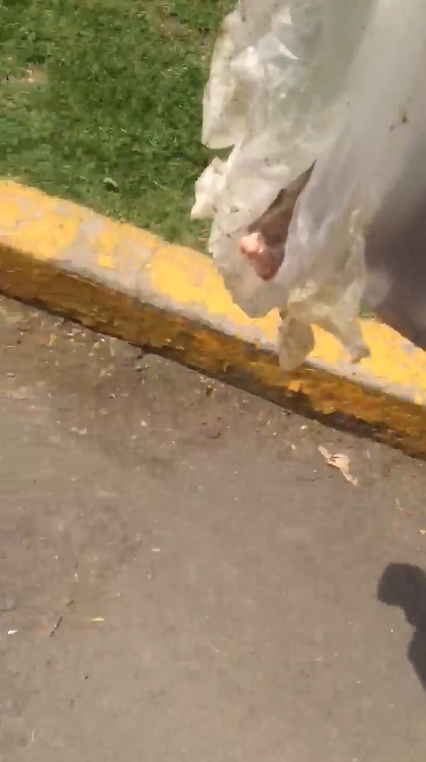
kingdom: Animalia
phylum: Chordata
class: Mammalia
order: Didelphimorphia
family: Didelphidae
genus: Didelphis
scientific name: Didelphis virginiana
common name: Virginia opossum
